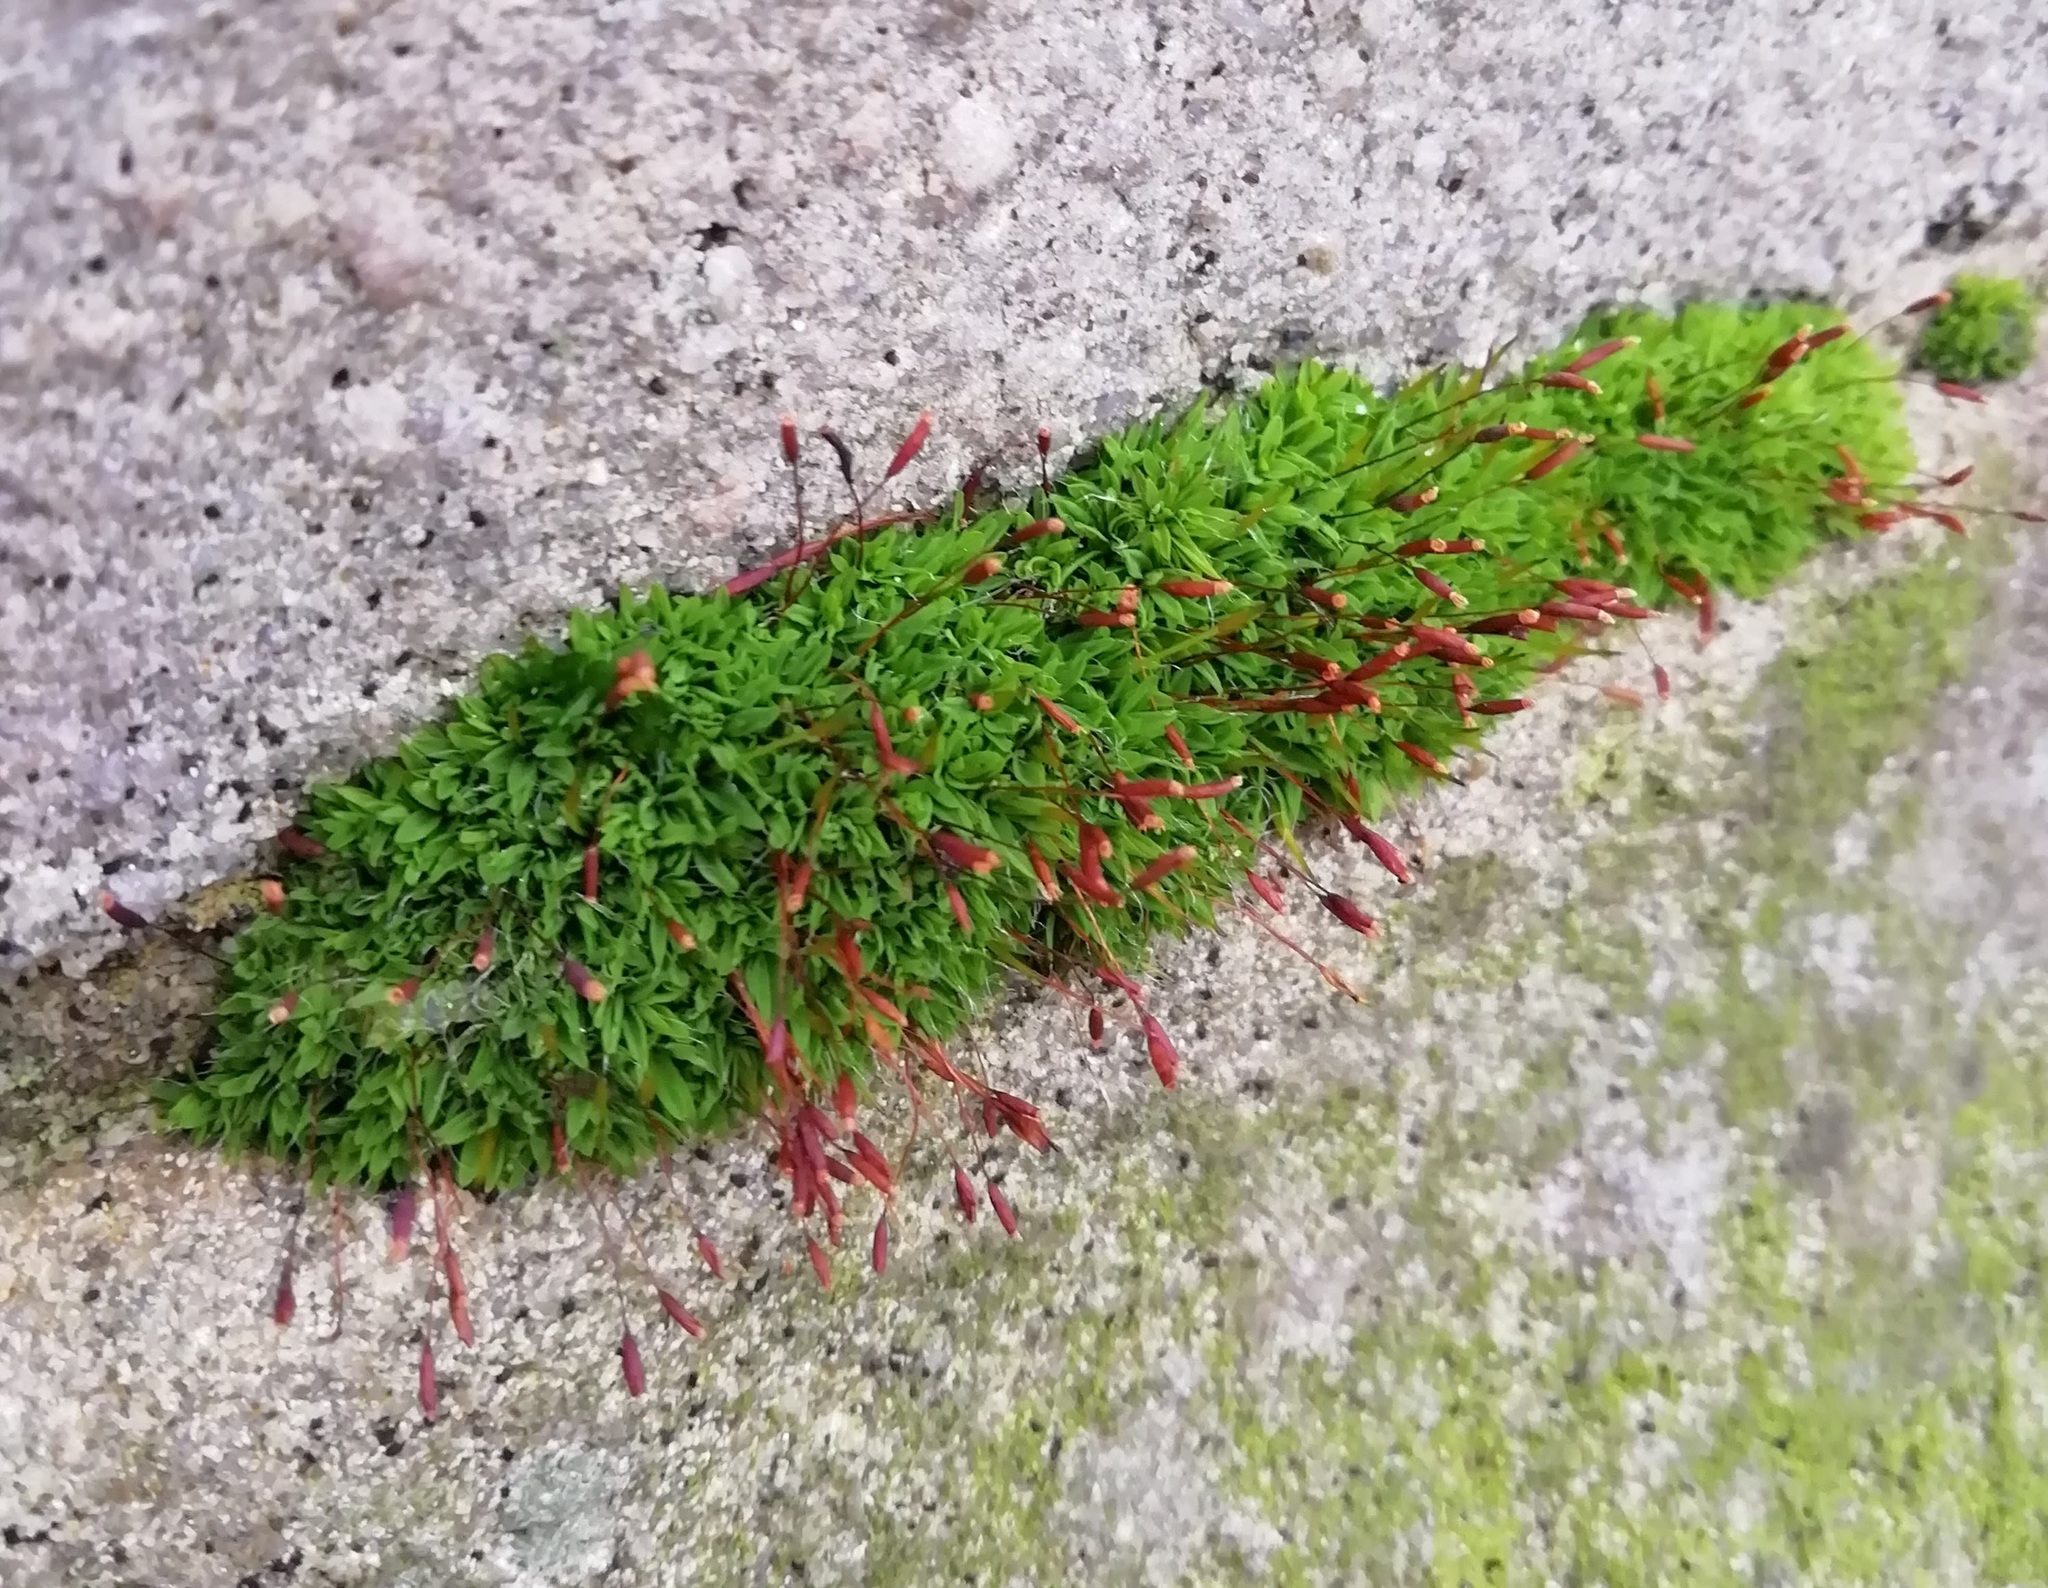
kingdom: Plantae
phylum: Bryophyta
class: Bryopsida
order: Pottiales
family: Pottiaceae
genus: Tortula
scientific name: Tortula muralis
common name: Wall screw-moss
